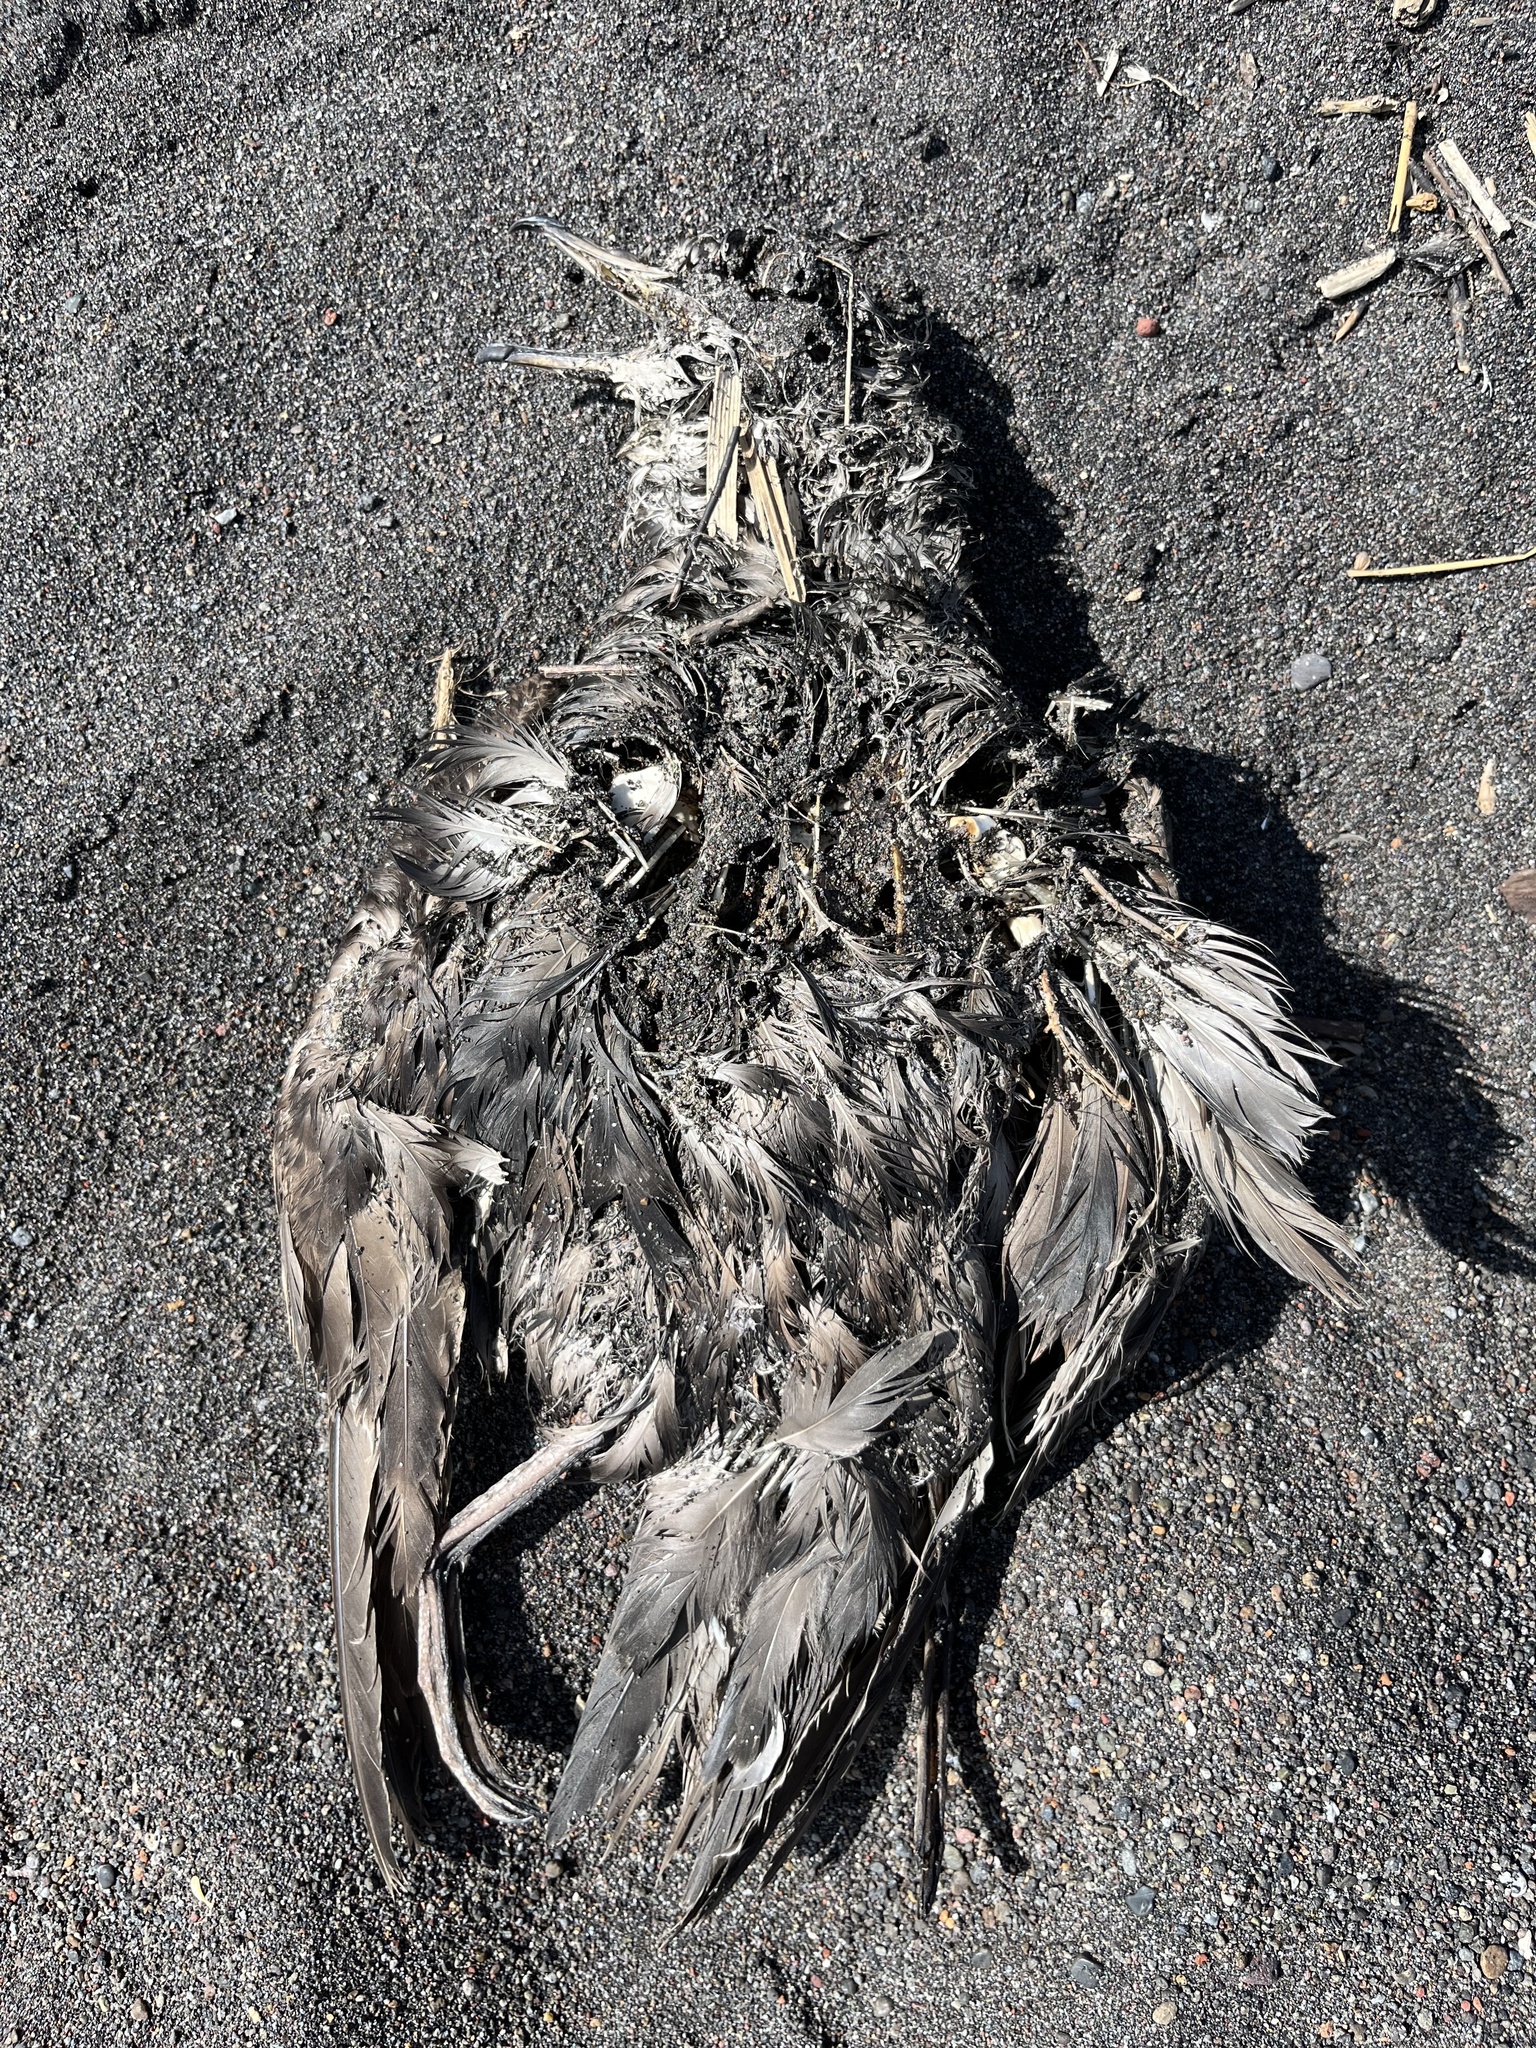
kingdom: Animalia
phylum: Chordata
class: Aves
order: Procellariiformes
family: Procellariidae
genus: Puffinus
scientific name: Puffinus tenuirostris
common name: Short-tailed shearwater
